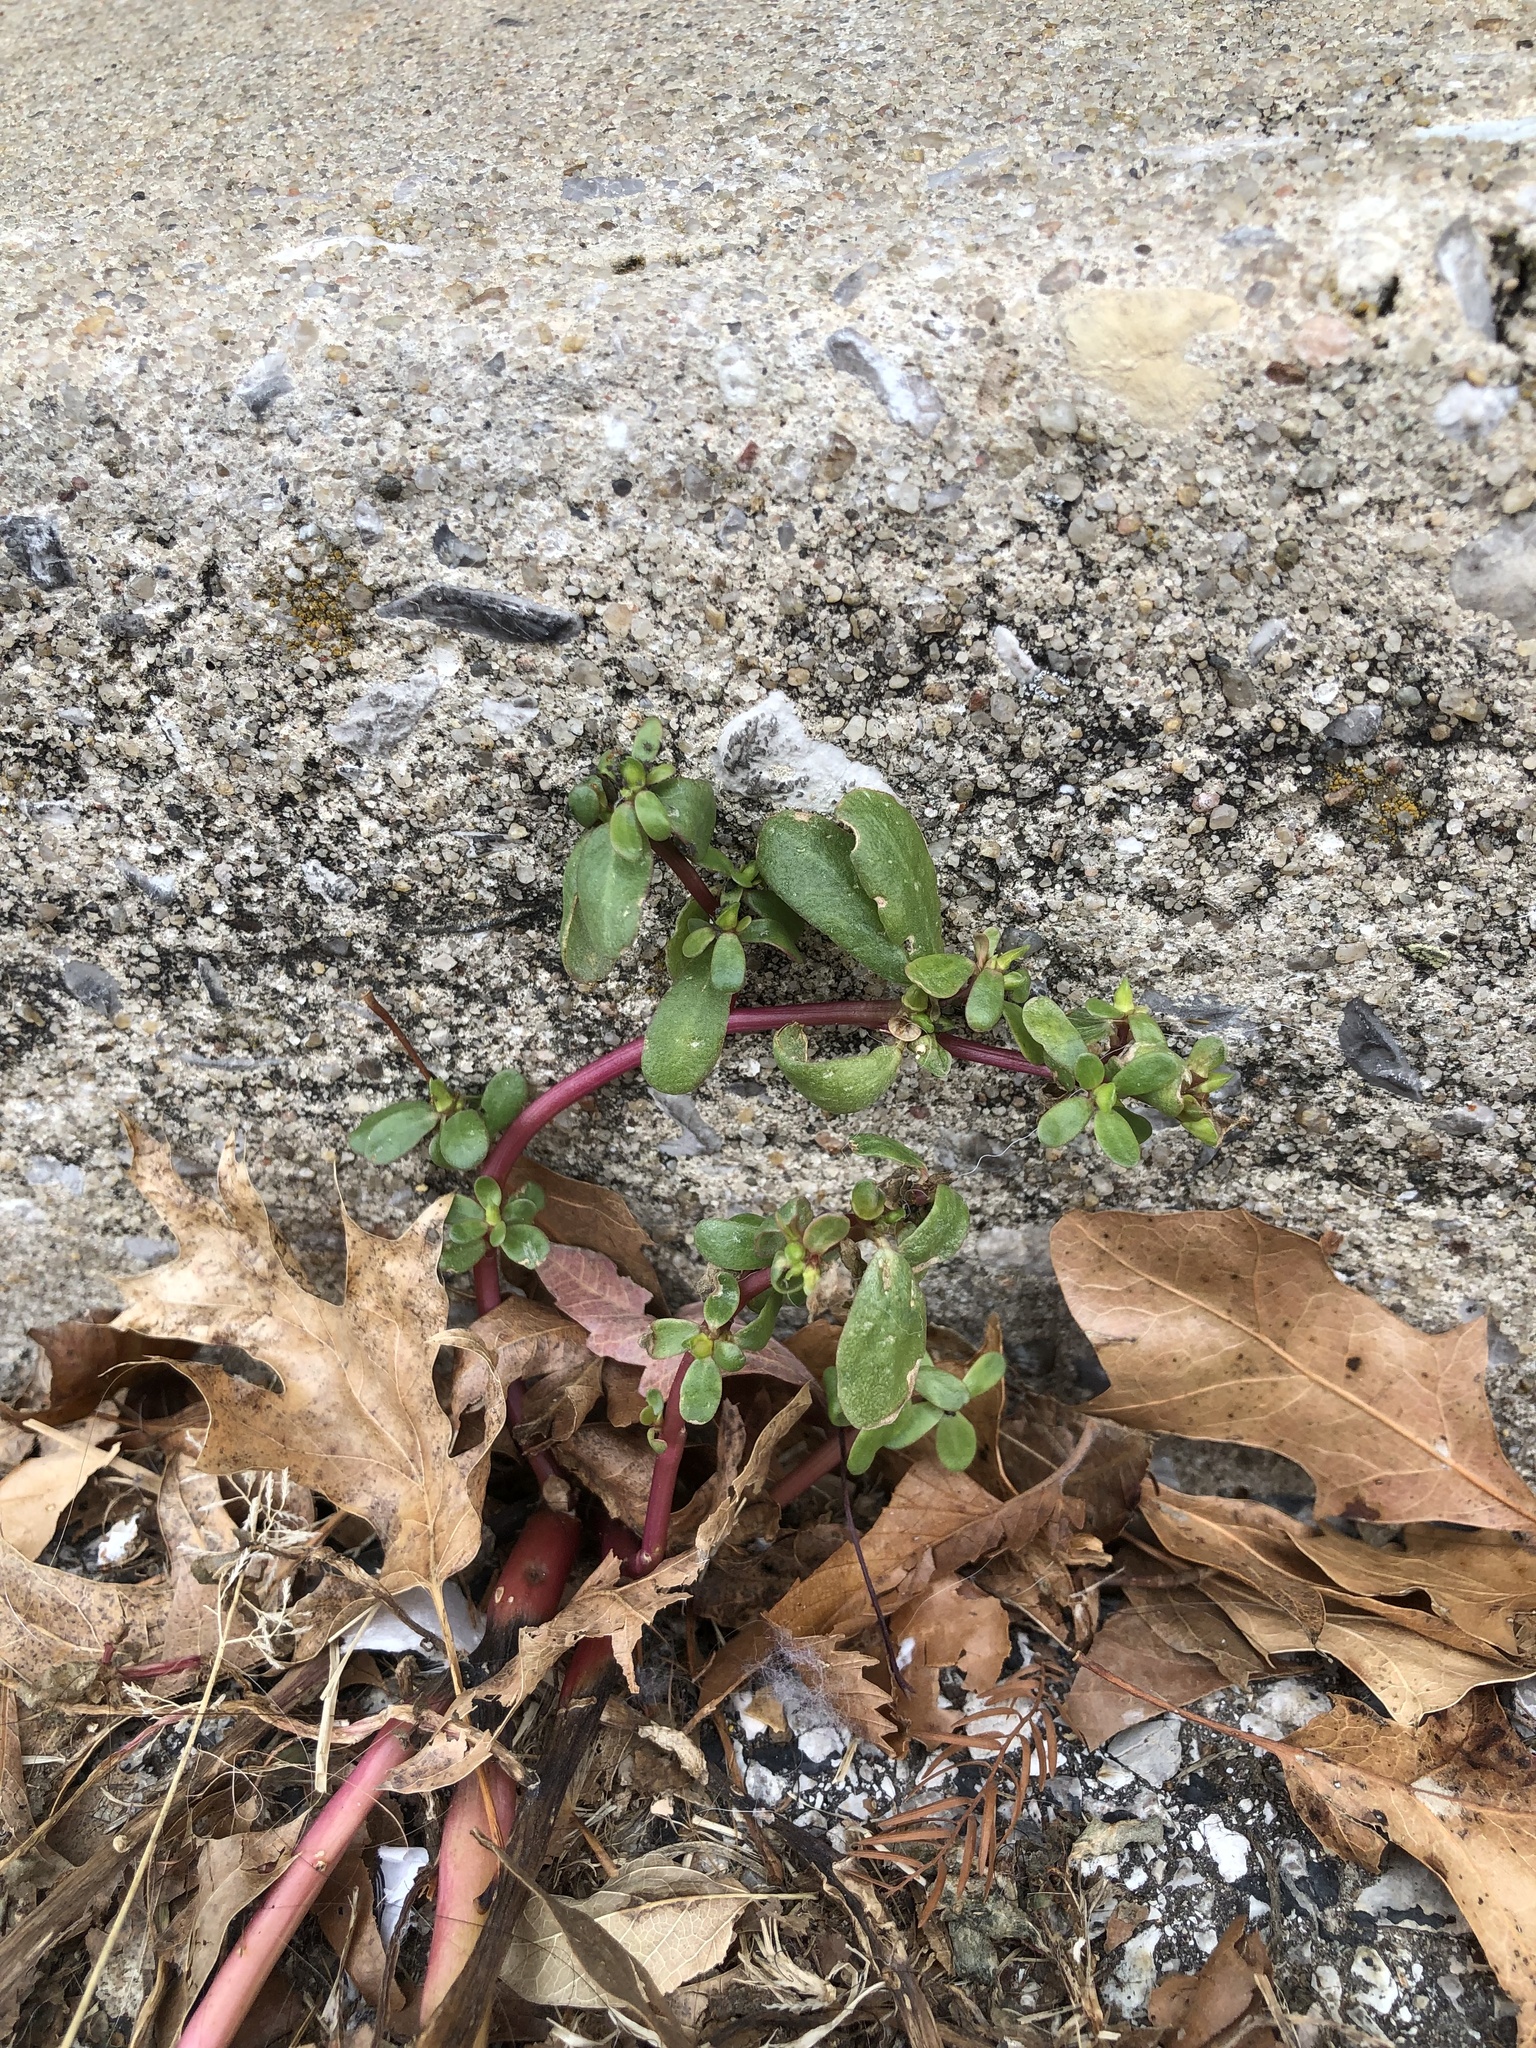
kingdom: Plantae
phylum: Tracheophyta
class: Magnoliopsida
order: Caryophyllales
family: Portulacaceae
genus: Portulaca
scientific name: Portulaca oleracea
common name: Common purslane
